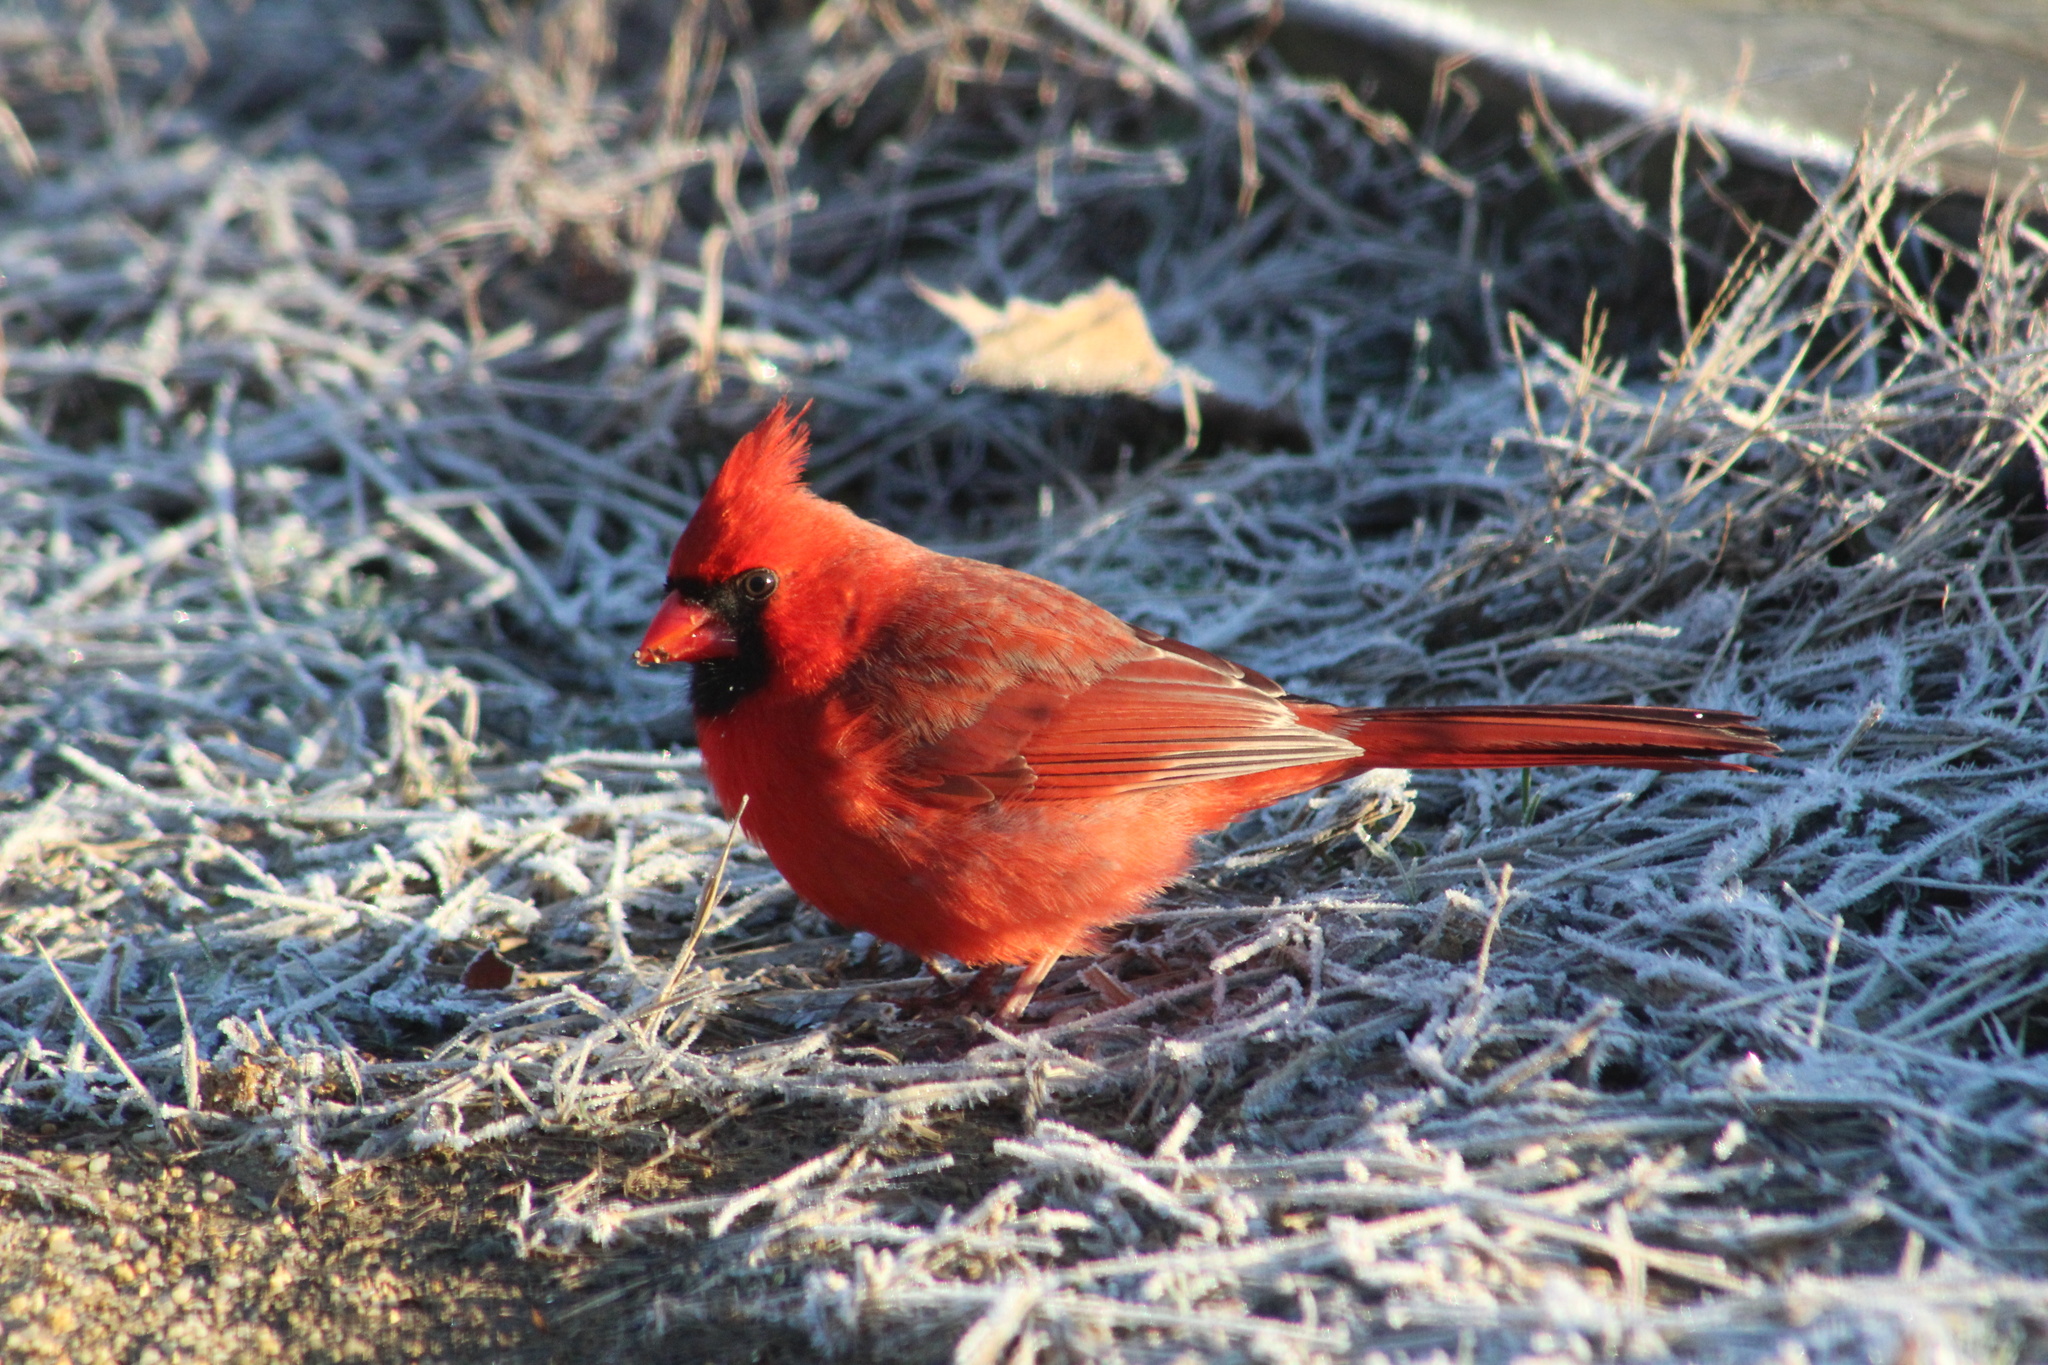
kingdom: Animalia
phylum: Chordata
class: Aves
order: Passeriformes
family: Cardinalidae
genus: Cardinalis
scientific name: Cardinalis cardinalis
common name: Northern cardinal
